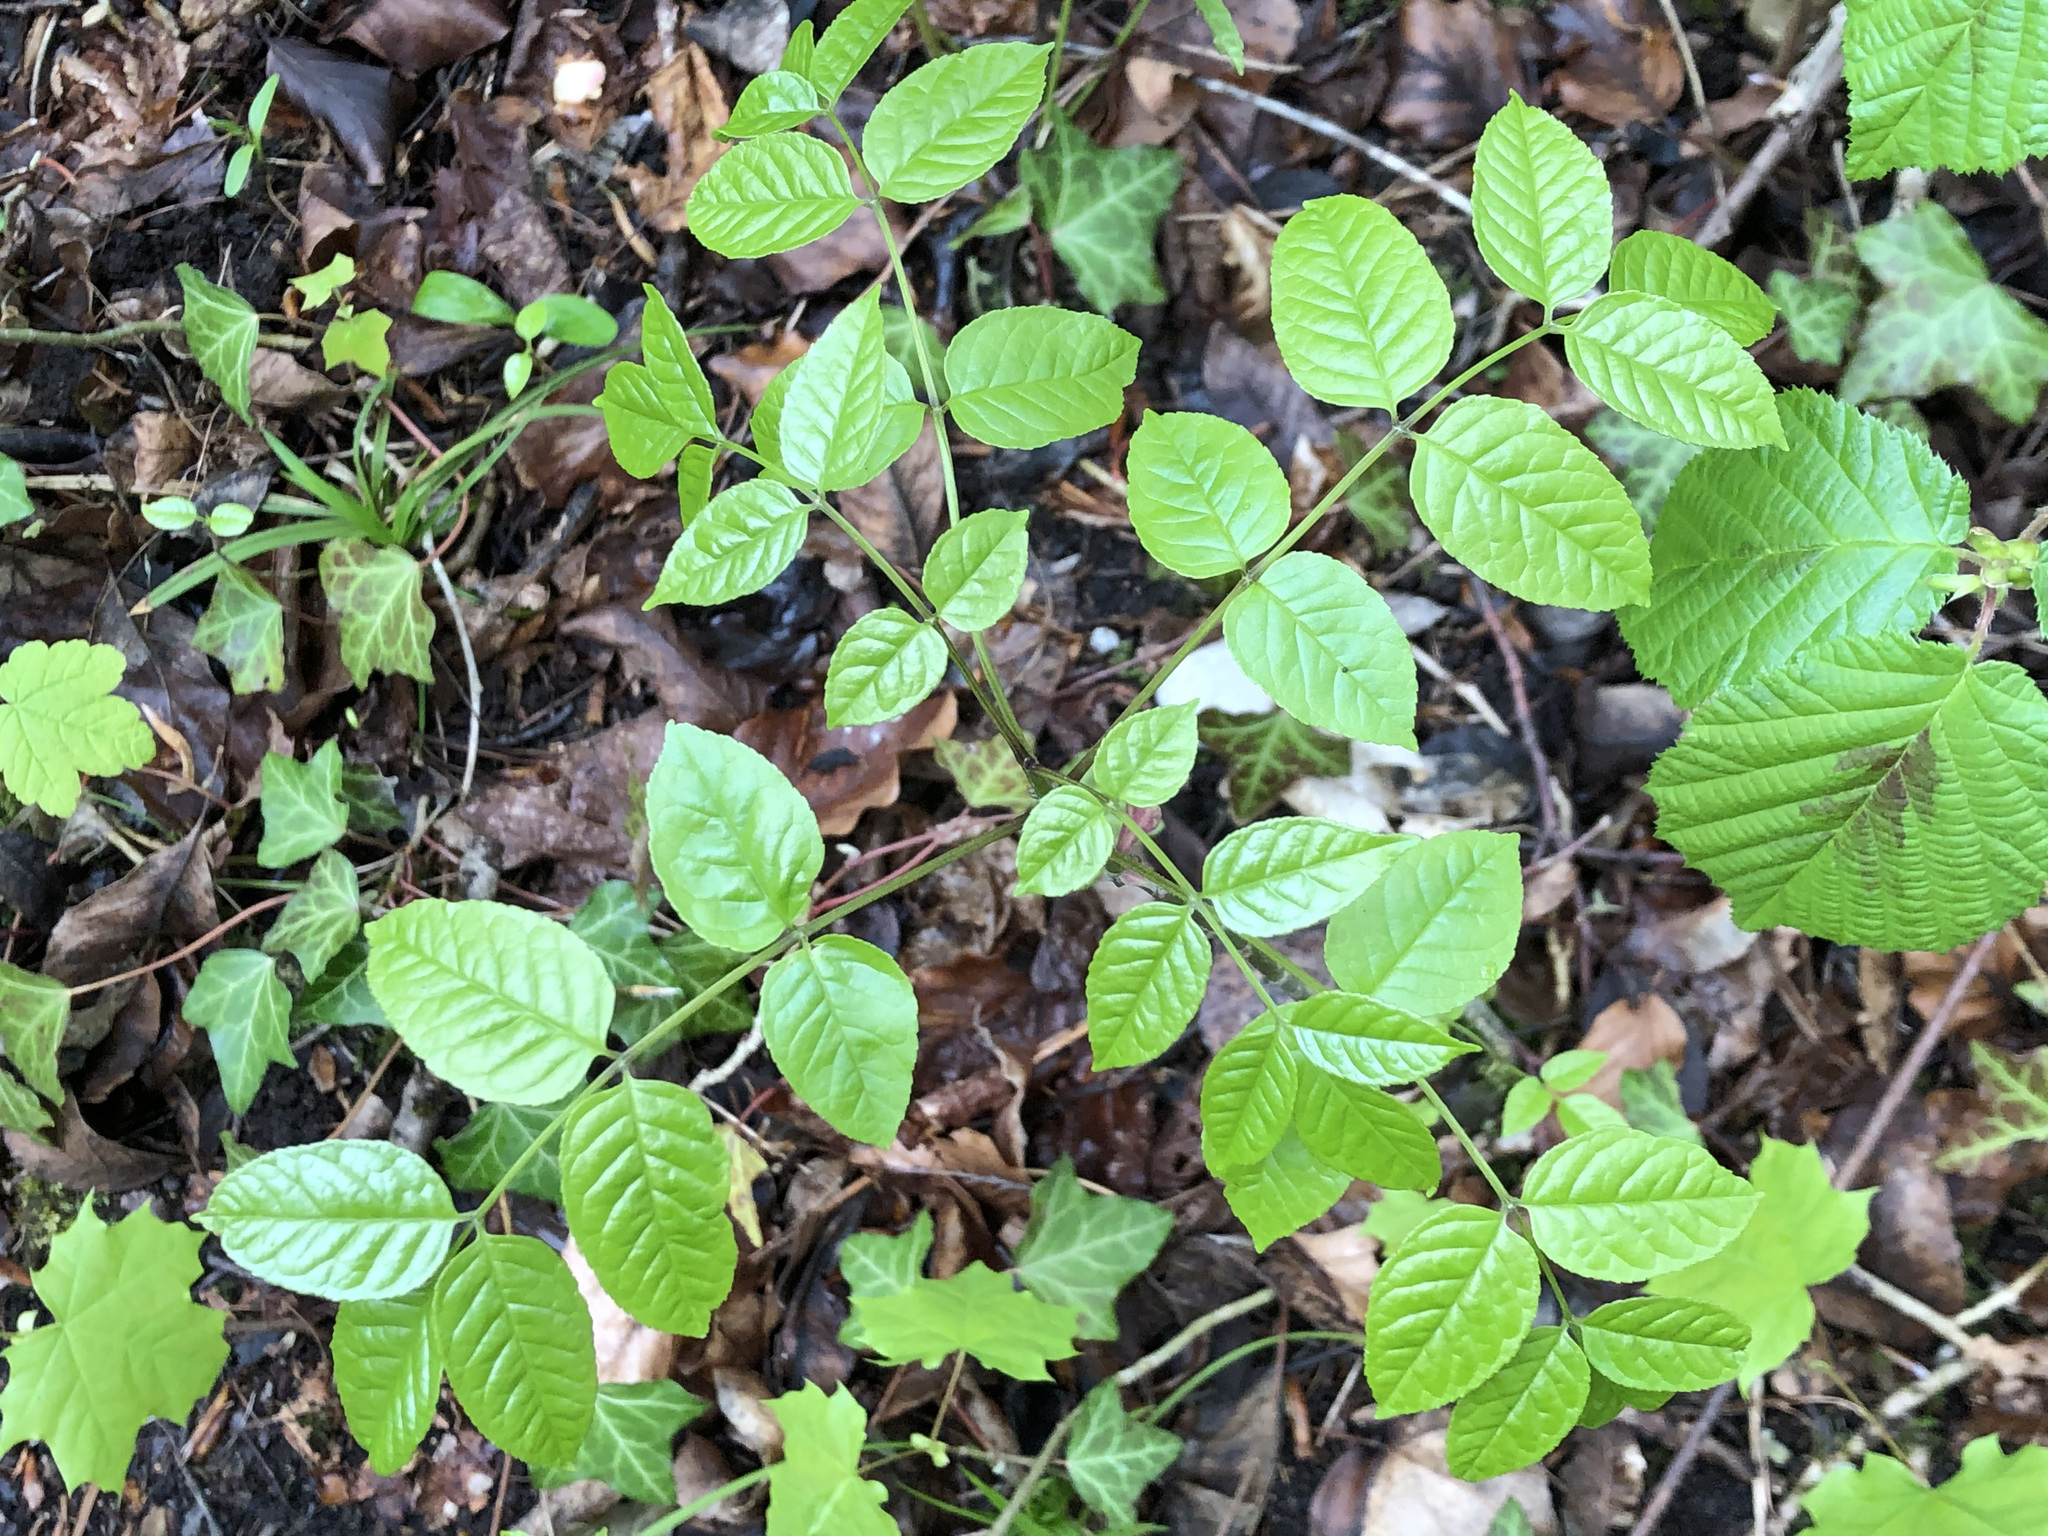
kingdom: Plantae
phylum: Tracheophyta
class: Magnoliopsida
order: Lamiales
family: Oleaceae
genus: Fraxinus
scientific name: Fraxinus excelsior
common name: European ash
